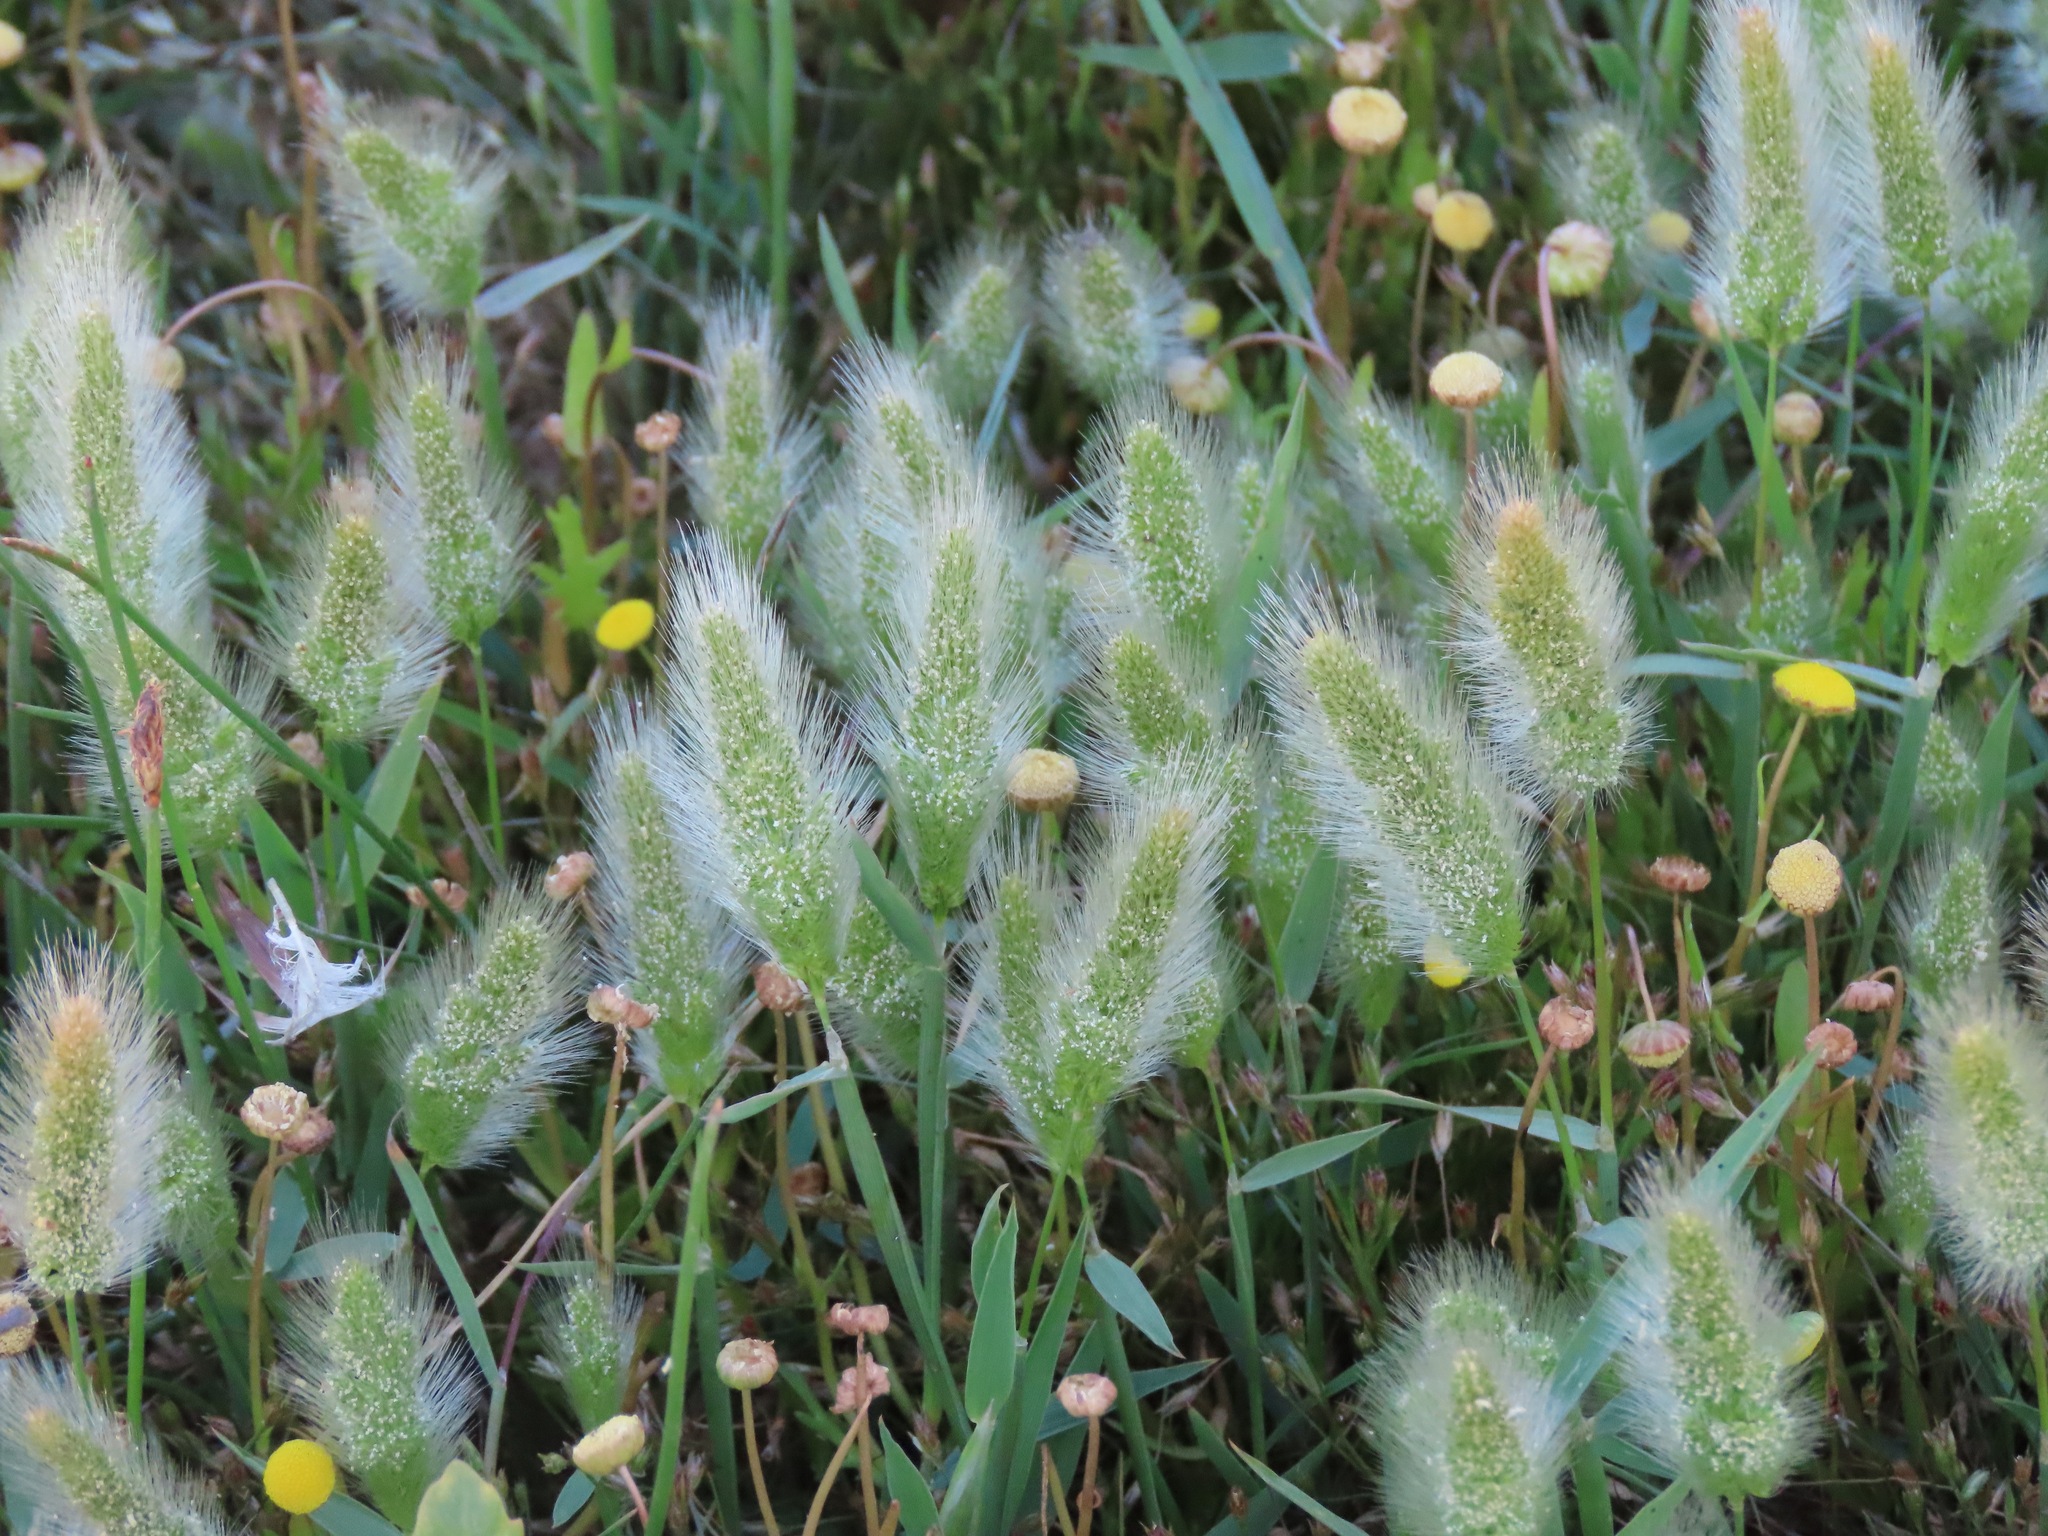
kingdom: Plantae
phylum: Tracheophyta
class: Liliopsida
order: Poales
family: Poaceae
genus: Polypogon
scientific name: Polypogon monspeliensis
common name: Annual rabbitsfoot grass
